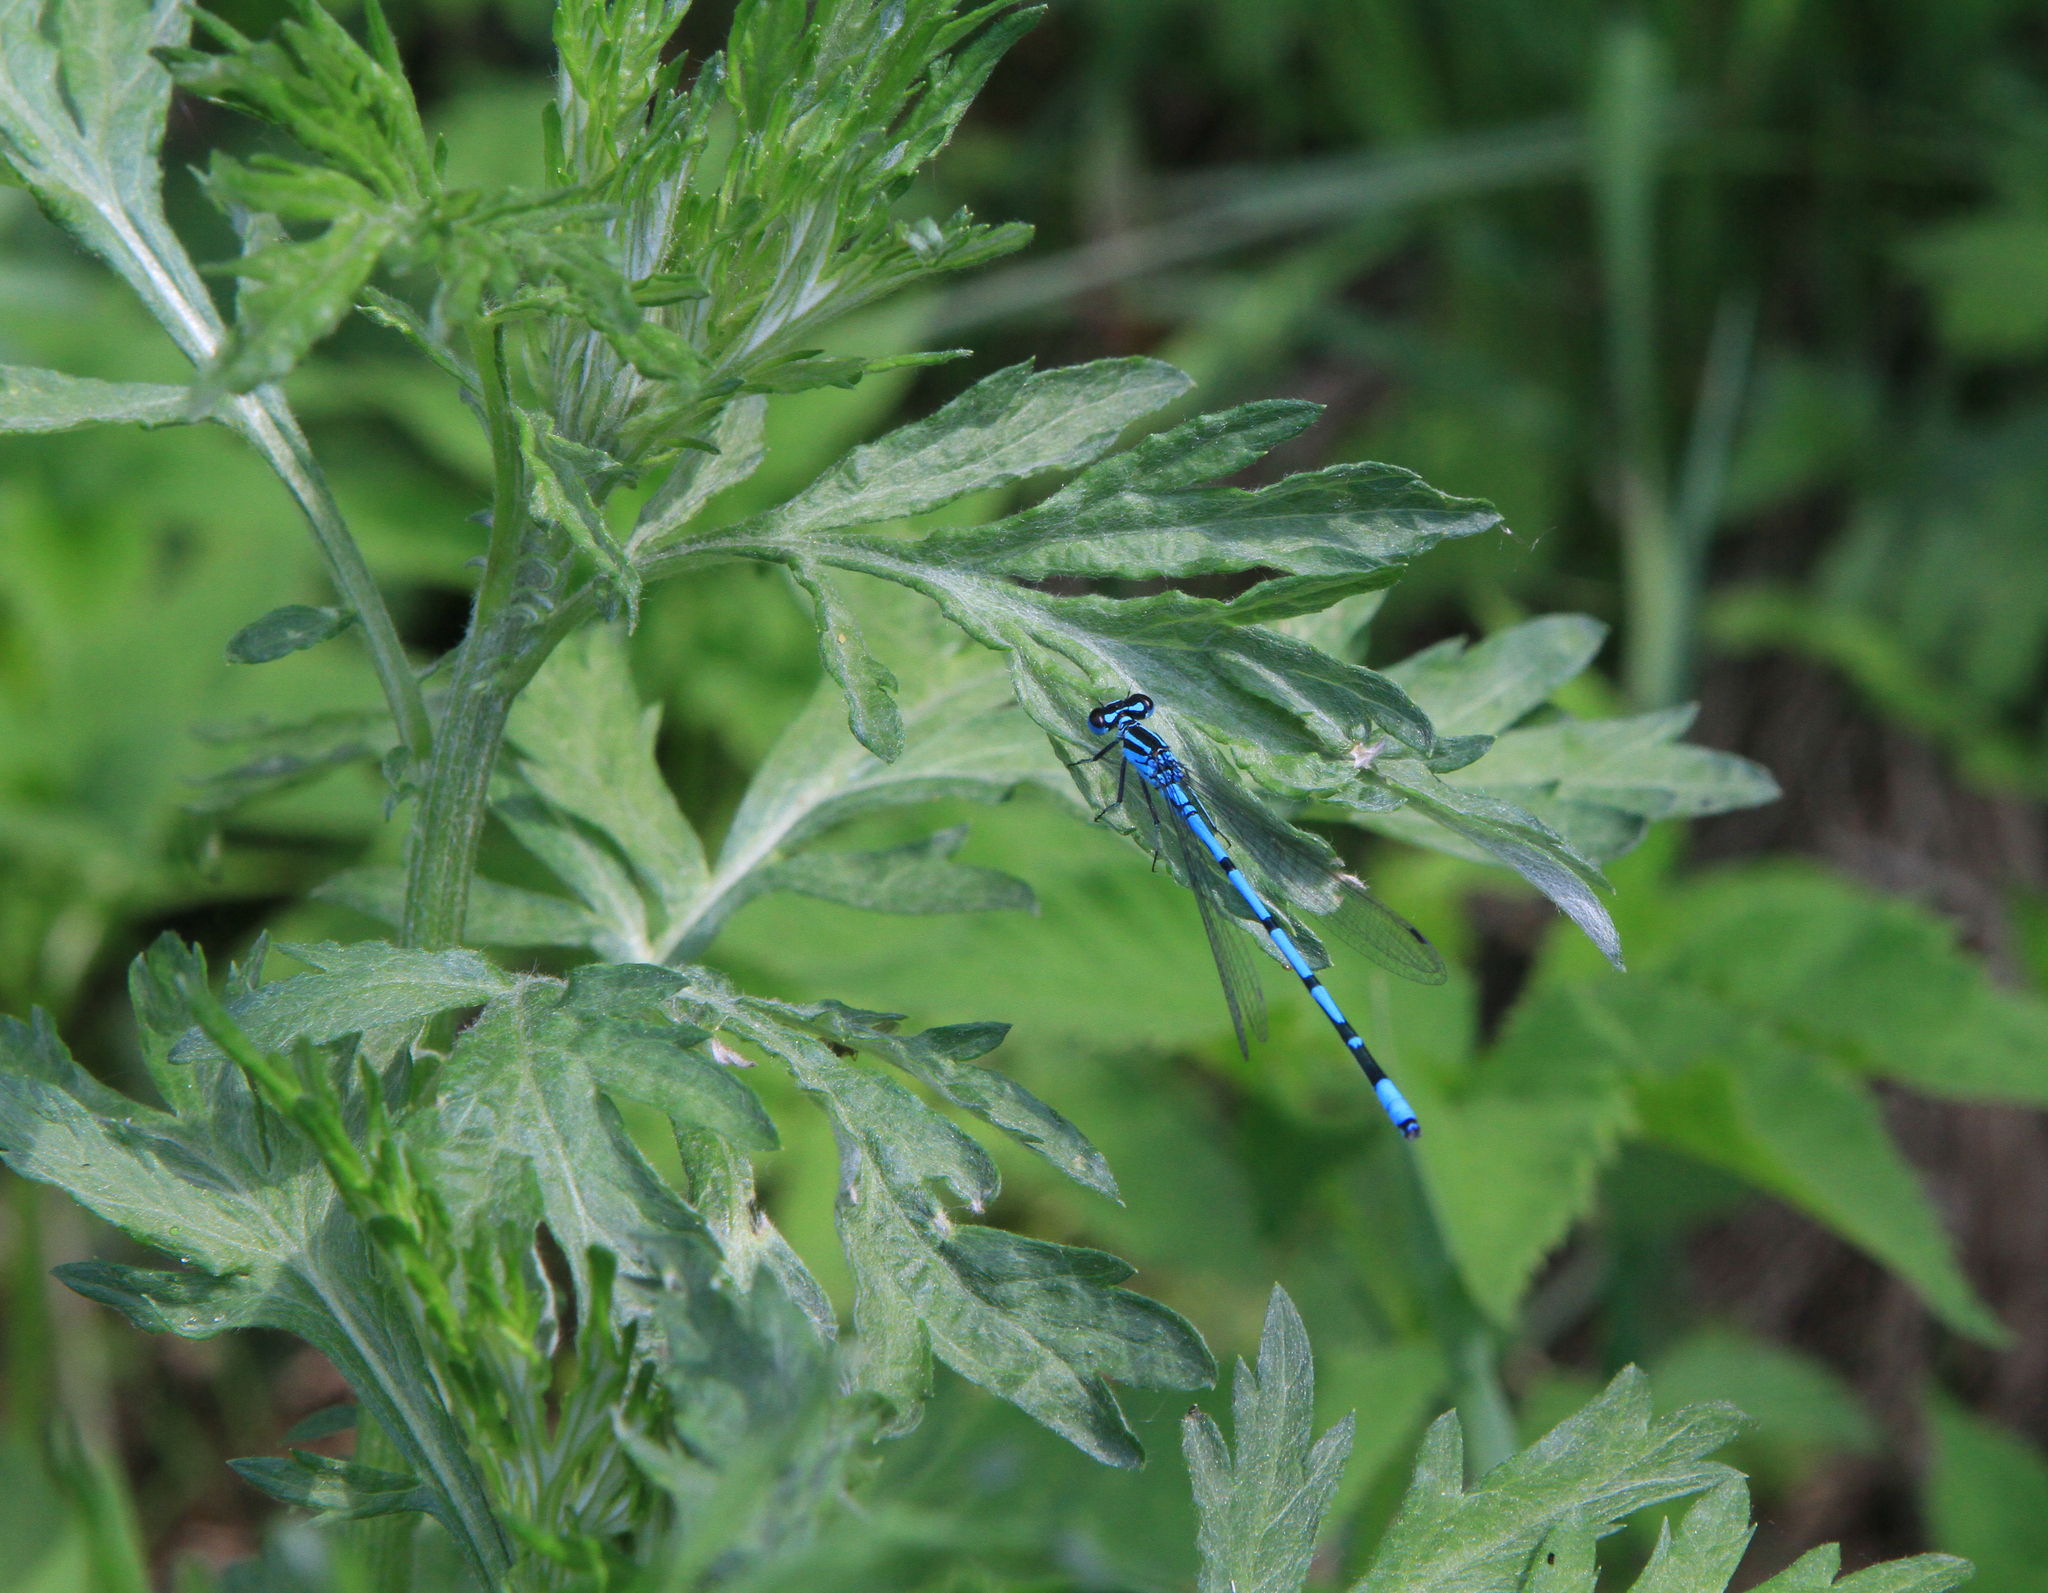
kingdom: Plantae
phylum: Tracheophyta
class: Magnoliopsida
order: Asterales
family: Asteraceae
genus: Artemisia
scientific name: Artemisia vulgaris
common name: Mugwort
